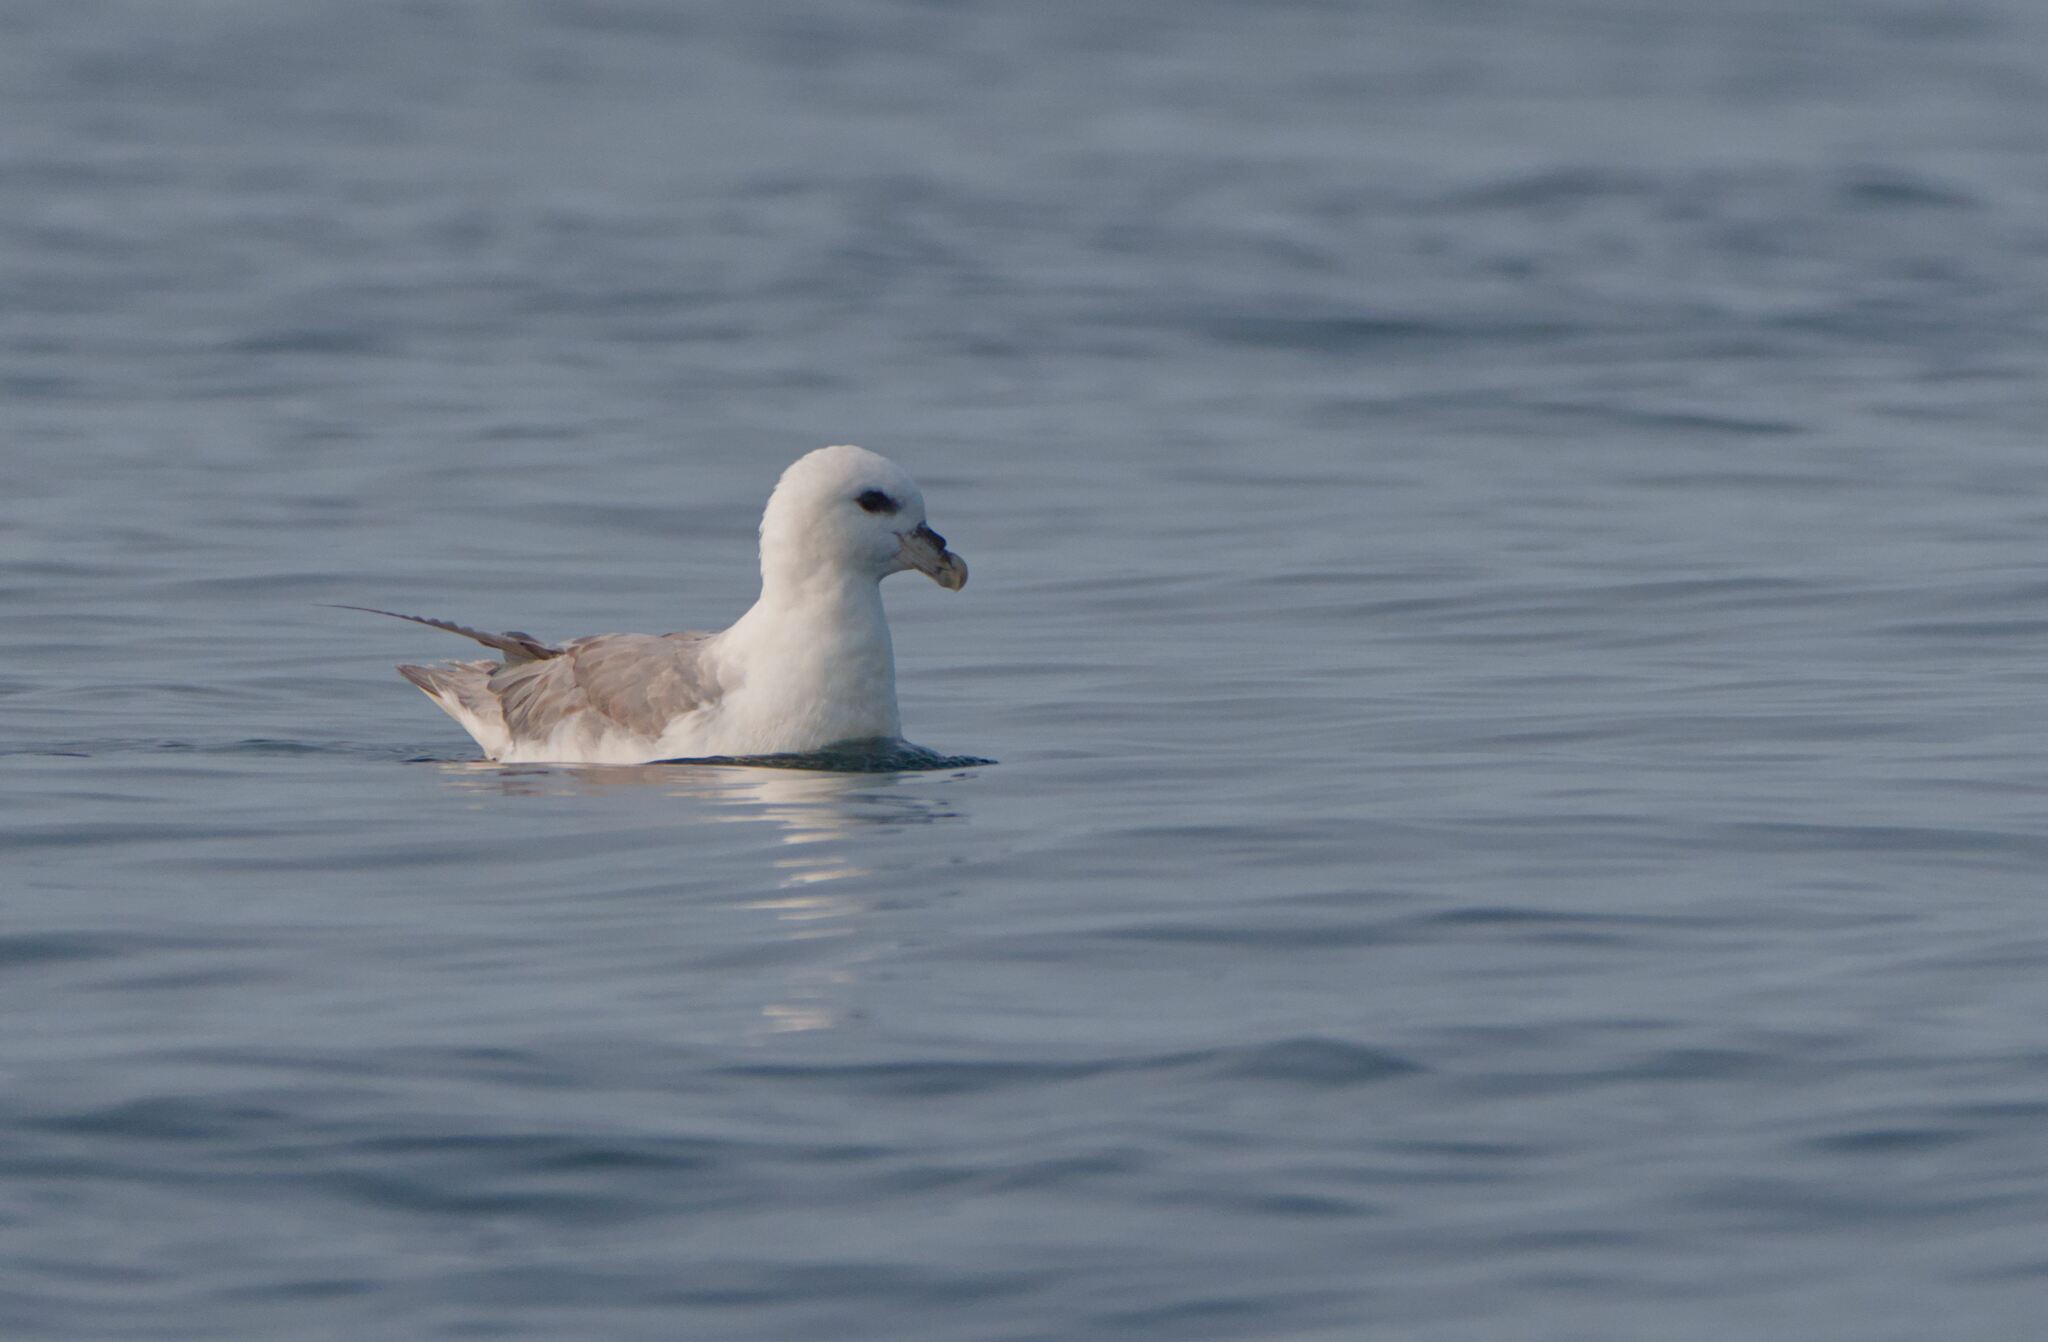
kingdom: Animalia
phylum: Chordata
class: Aves
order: Procellariiformes
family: Procellariidae
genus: Fulmarus
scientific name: Fulmarus glacialis
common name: Northern fulmar
